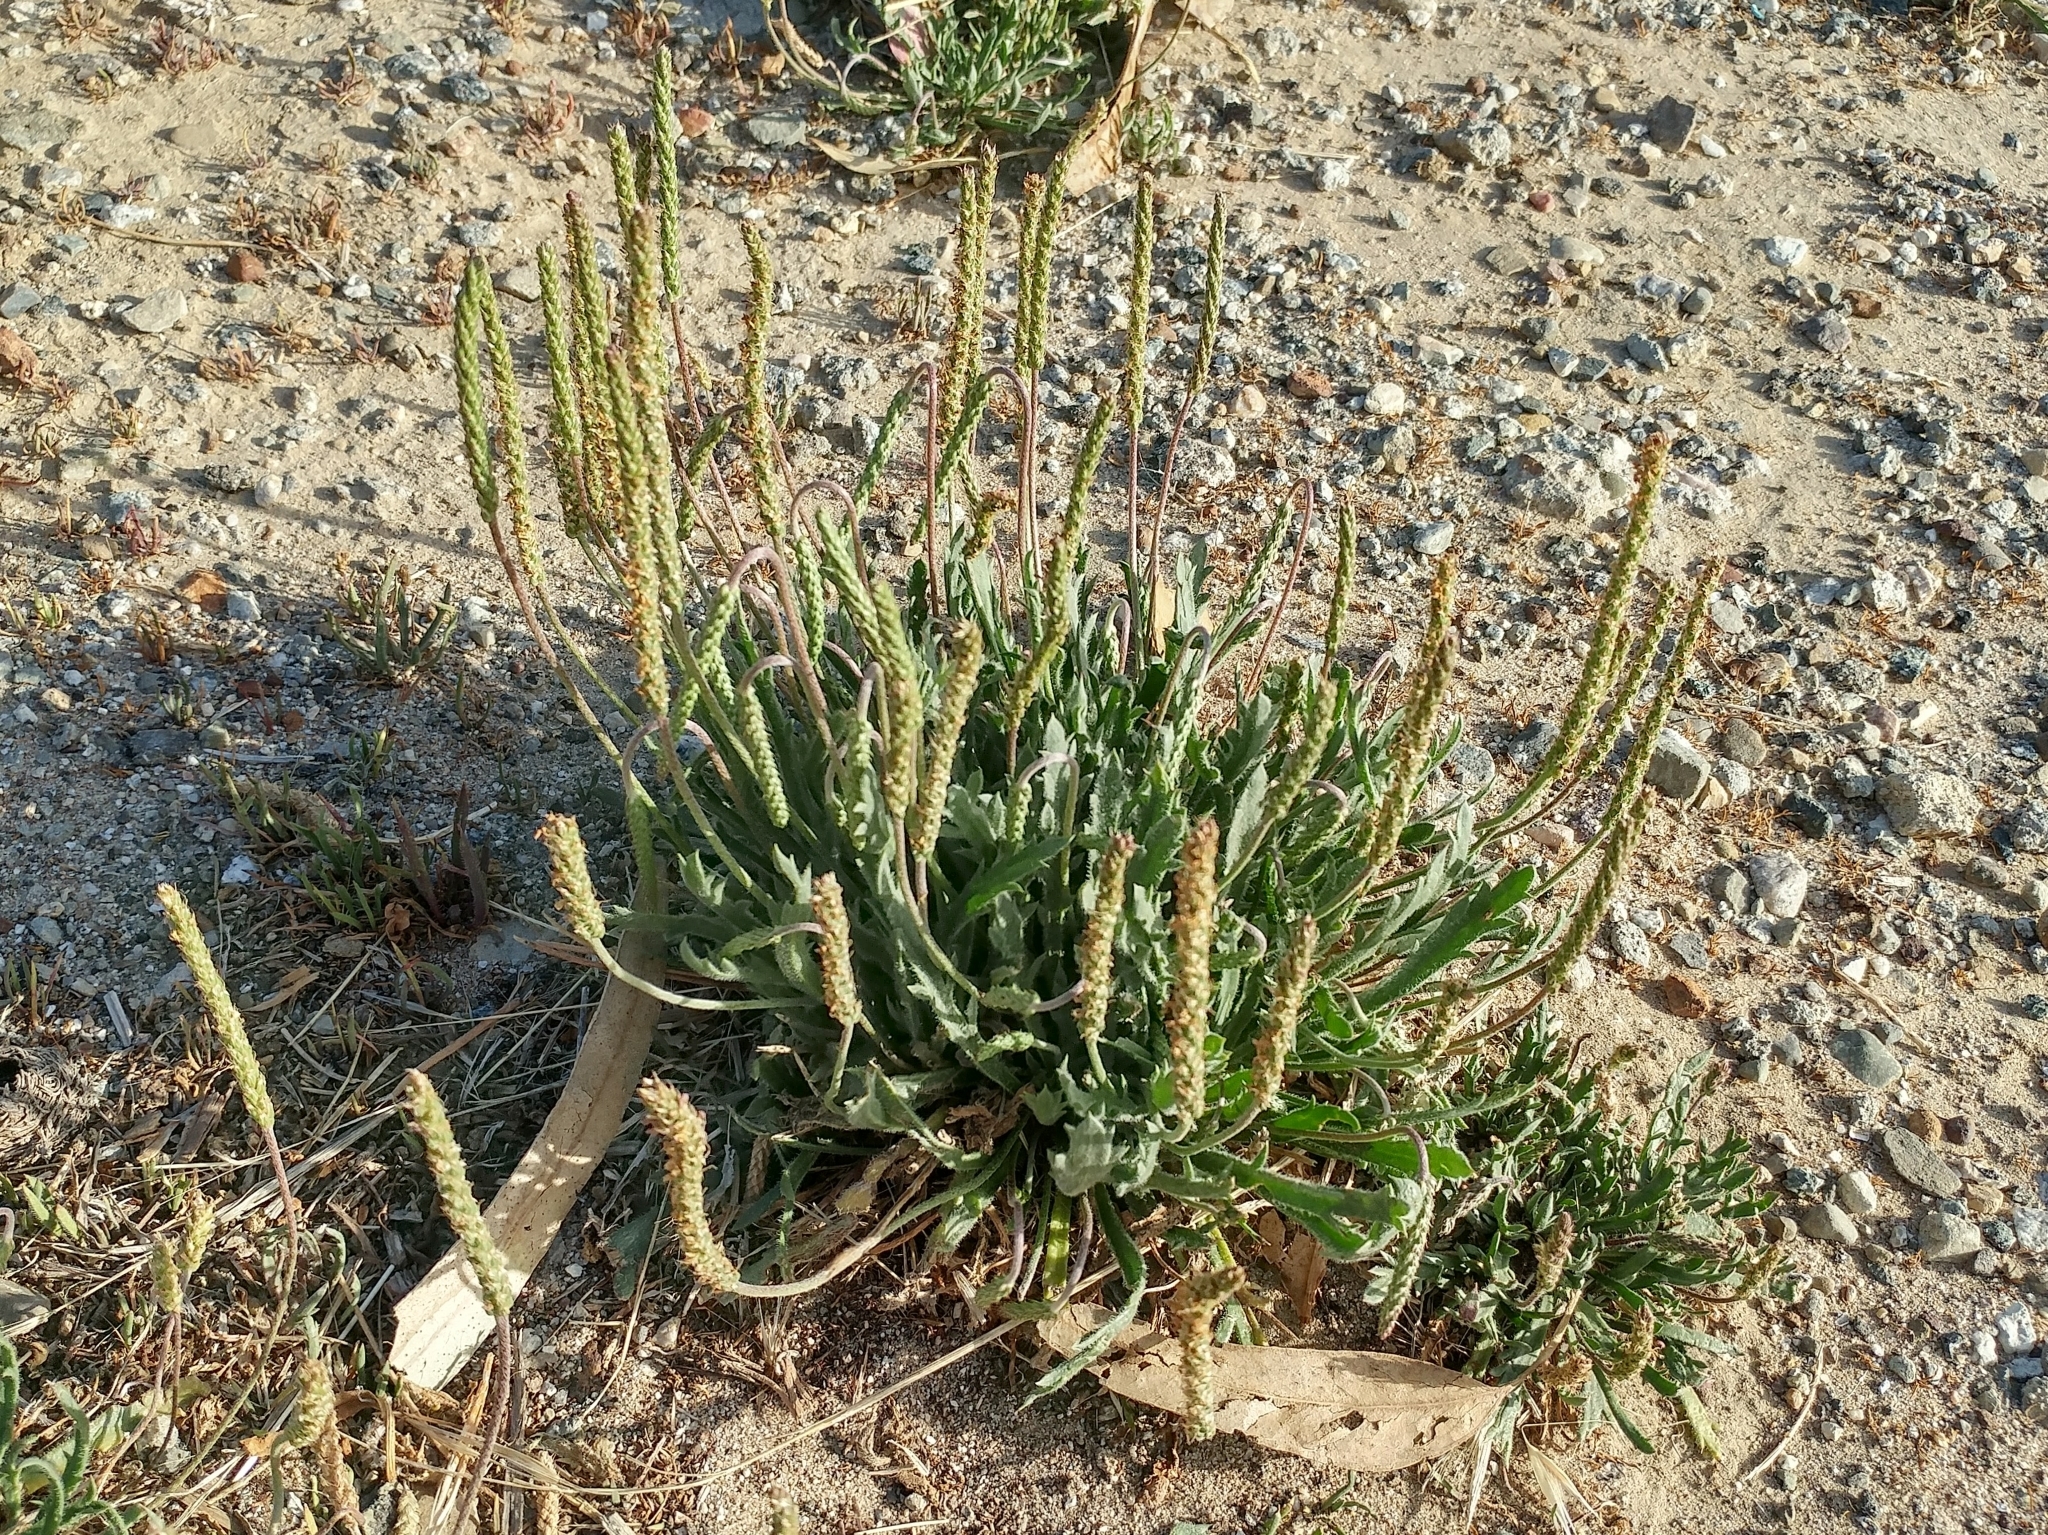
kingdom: Plantae
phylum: Tracheophyta
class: Magnoliopsida
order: Lamiales
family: Plantaginaceae
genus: Plantago
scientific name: Plantago coronopus
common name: Buck's-horn plantain
